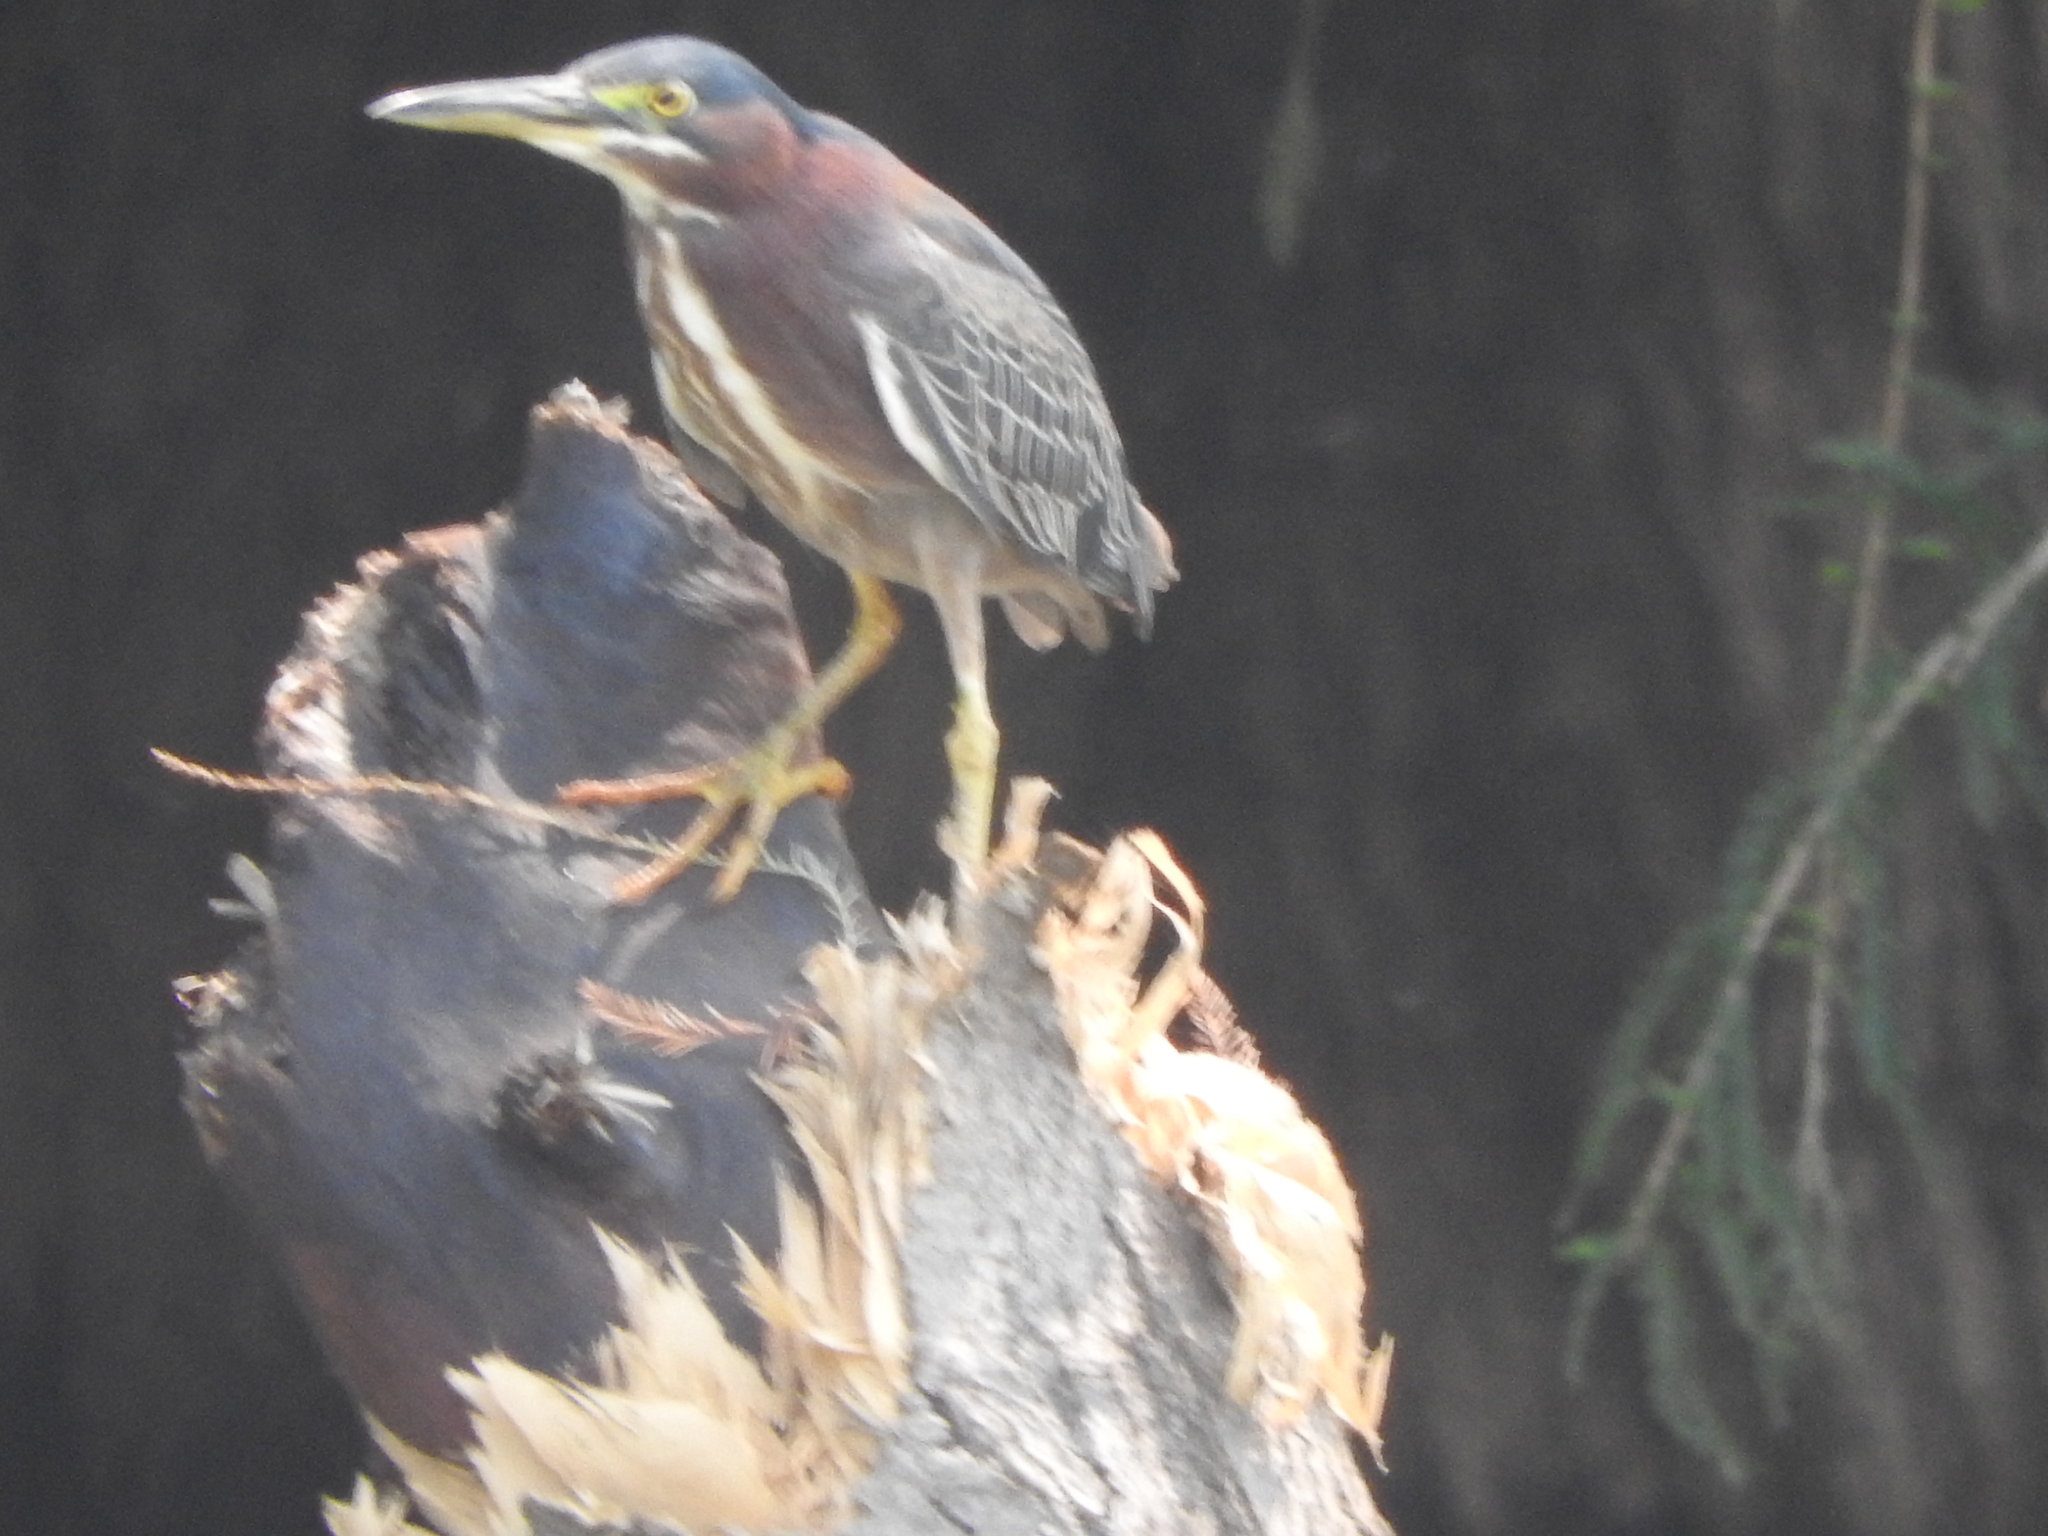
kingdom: Animalia
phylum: Chordata
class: Aves
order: Pelecaniformes
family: Ardeidae
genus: Butorides
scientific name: Butorides virescens
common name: Green heron
